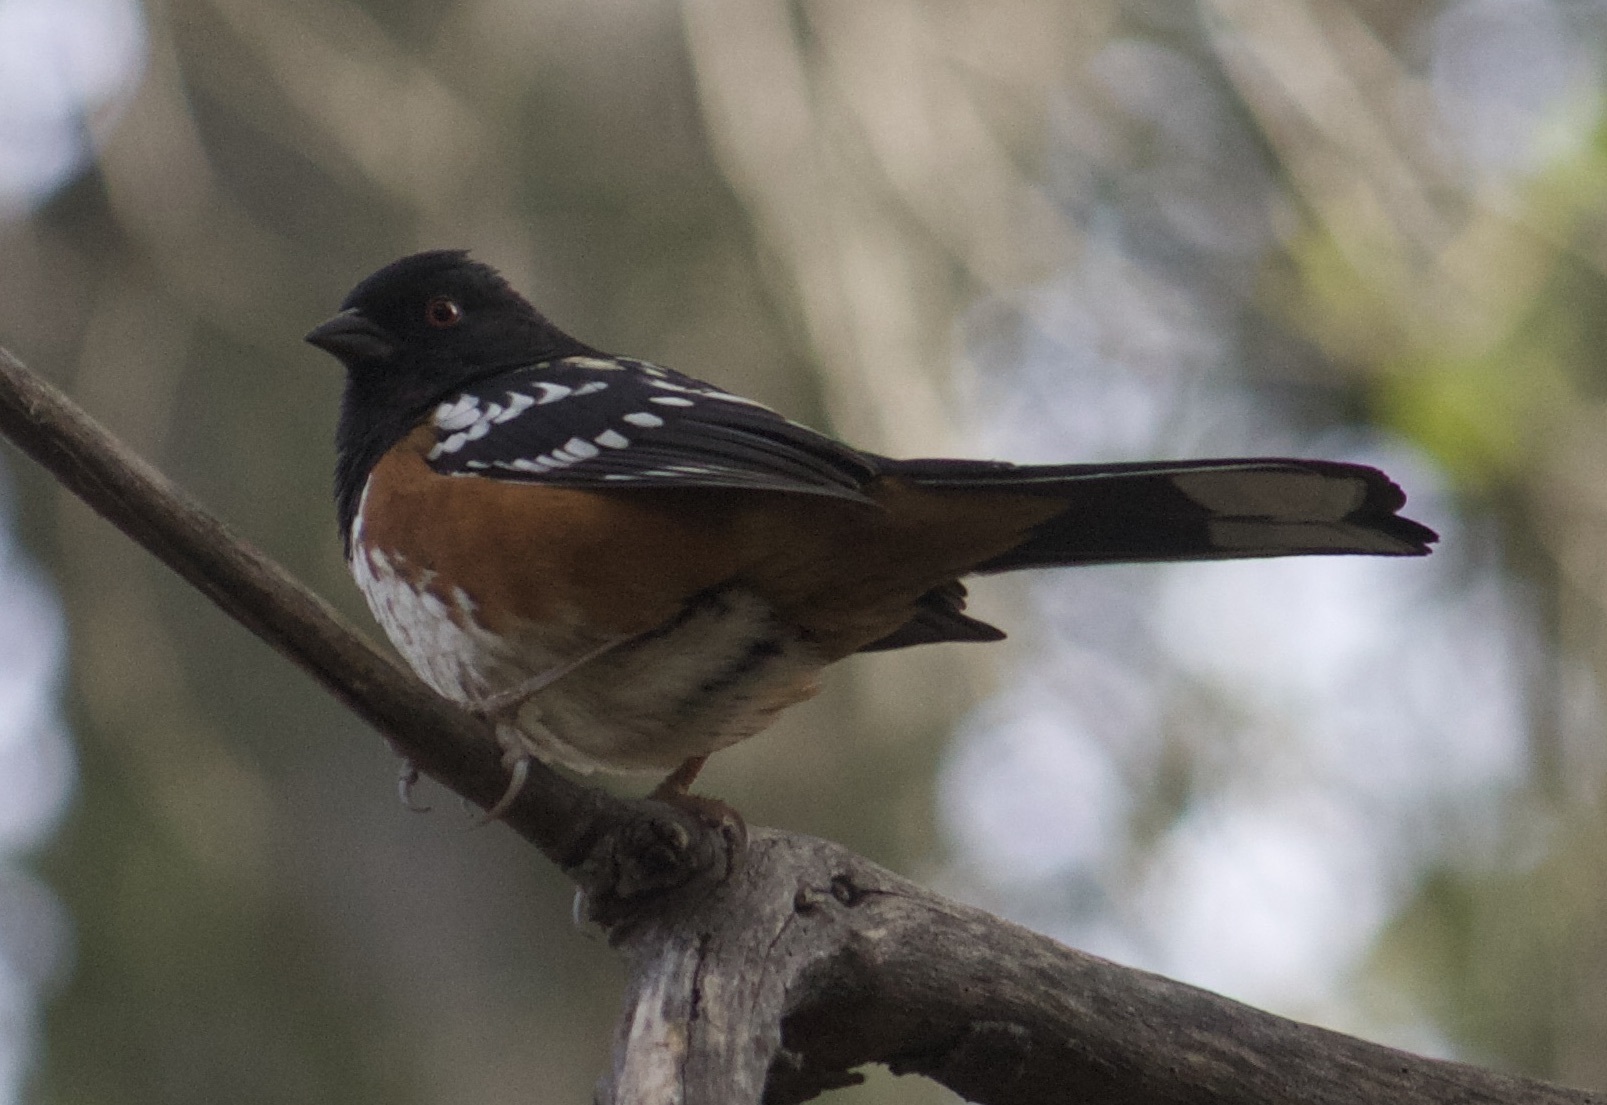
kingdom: Animalia
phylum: Chordata
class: Aves
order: Passeriformes
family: Passerellidae
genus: Pipilo
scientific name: Pipilo maculatus
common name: Spotted towhee
